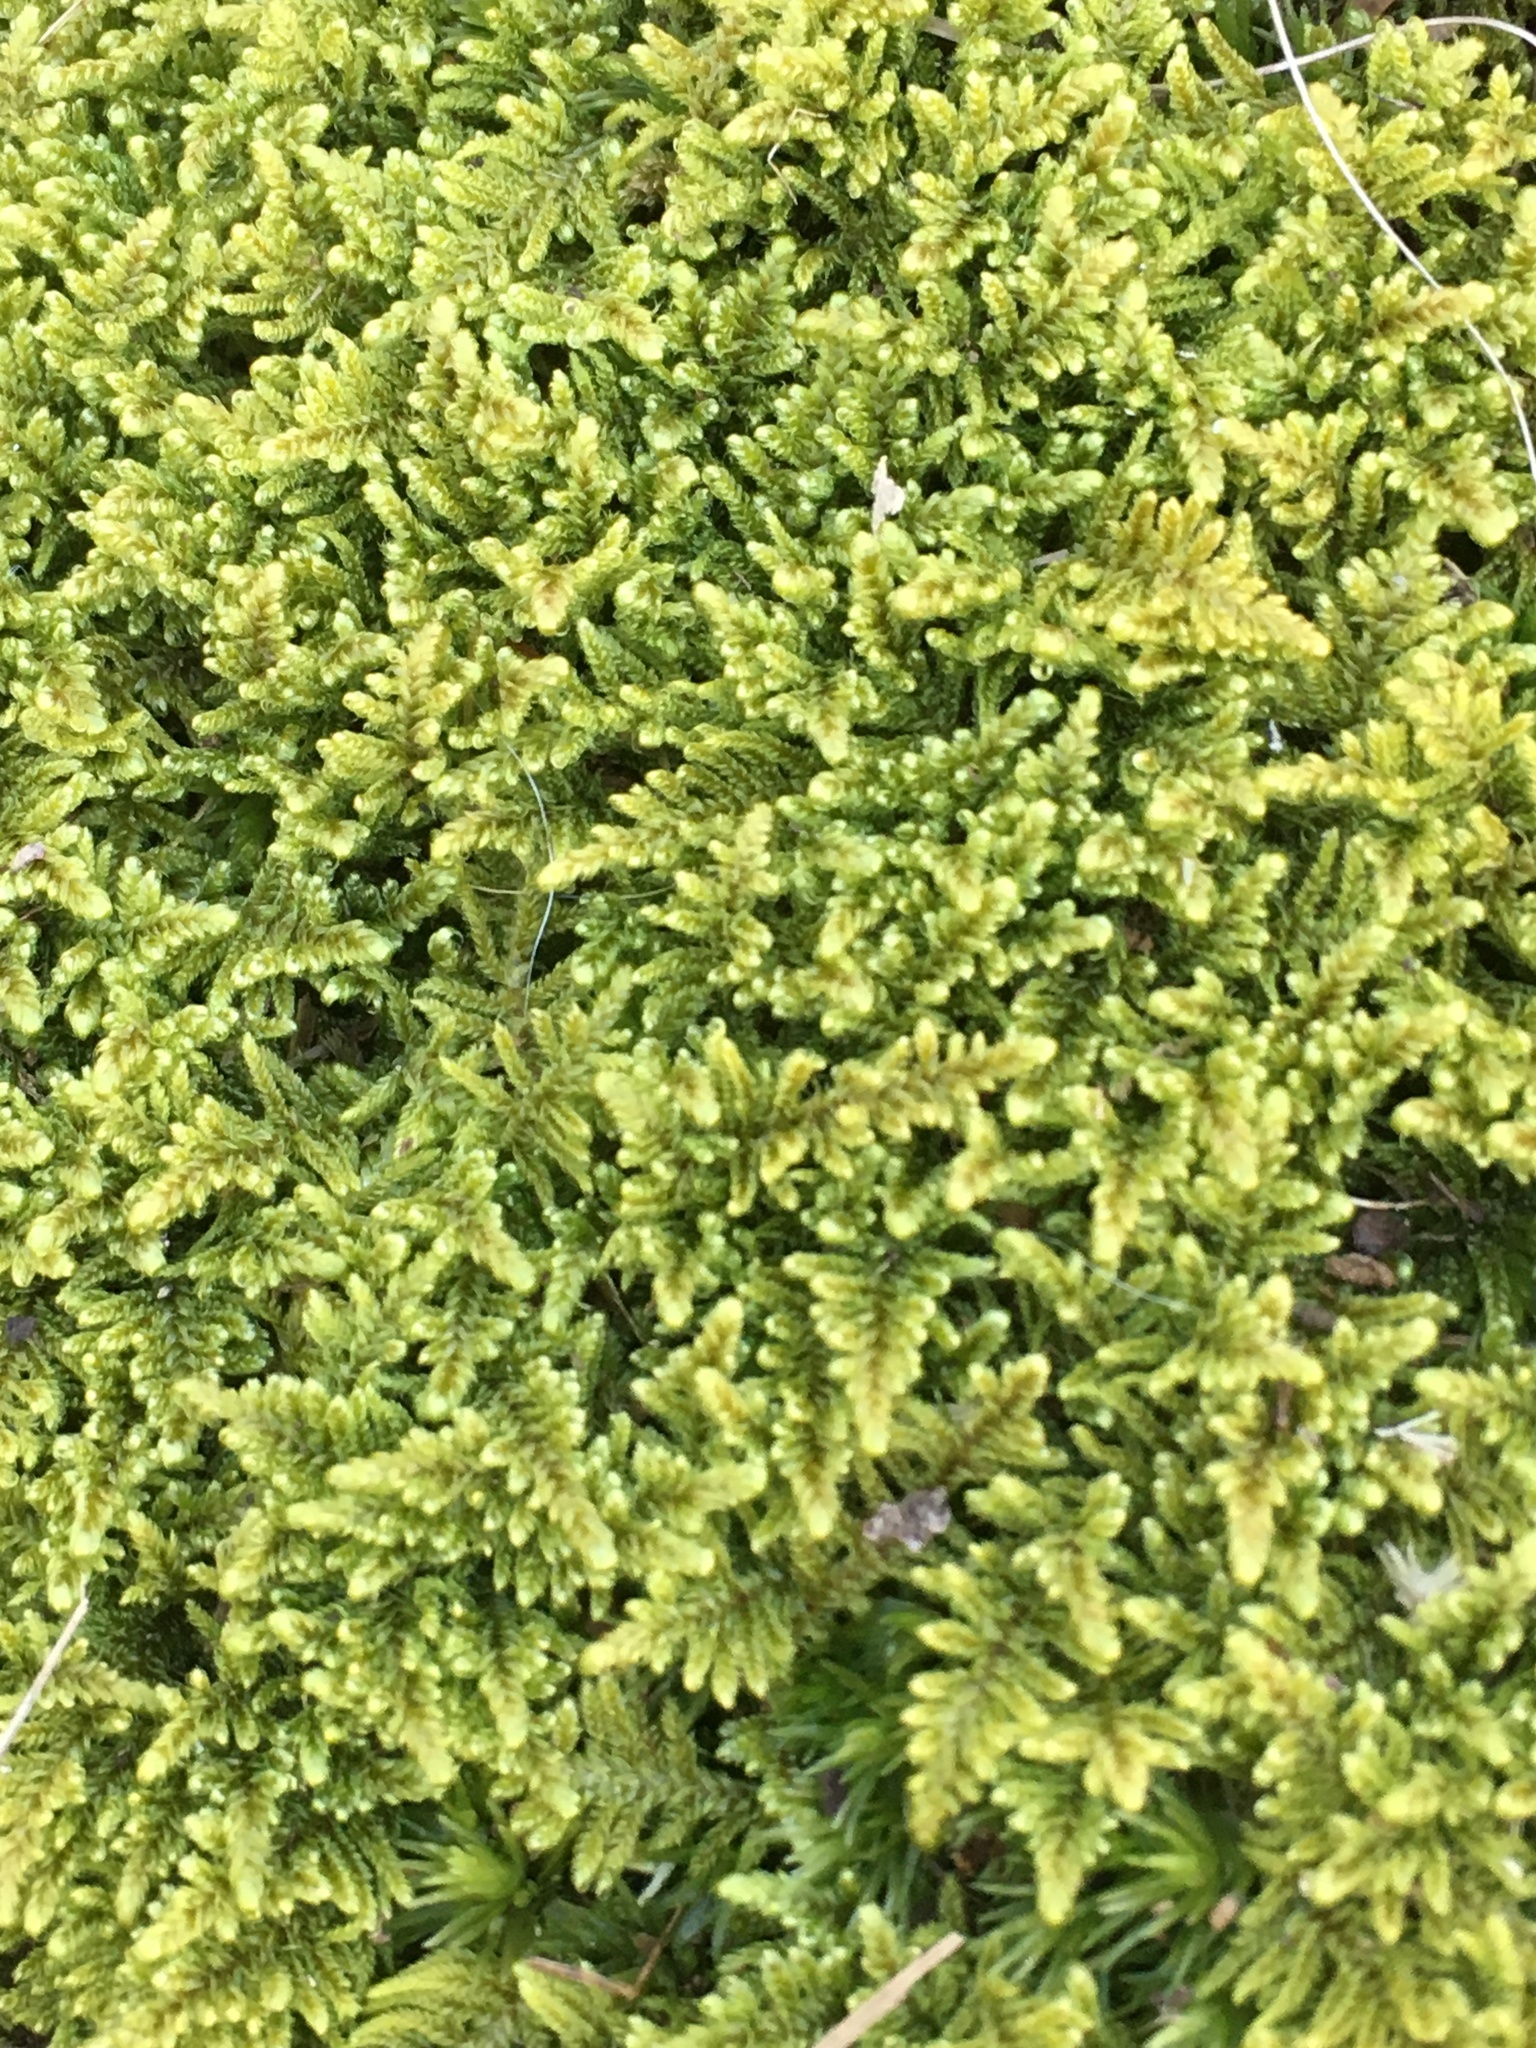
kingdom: Plantae
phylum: Bryophyta
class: Bryopsida
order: Hypnales
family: Callicladiaceae
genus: Callicladium
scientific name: Callicladium imponens
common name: Brocade moss
